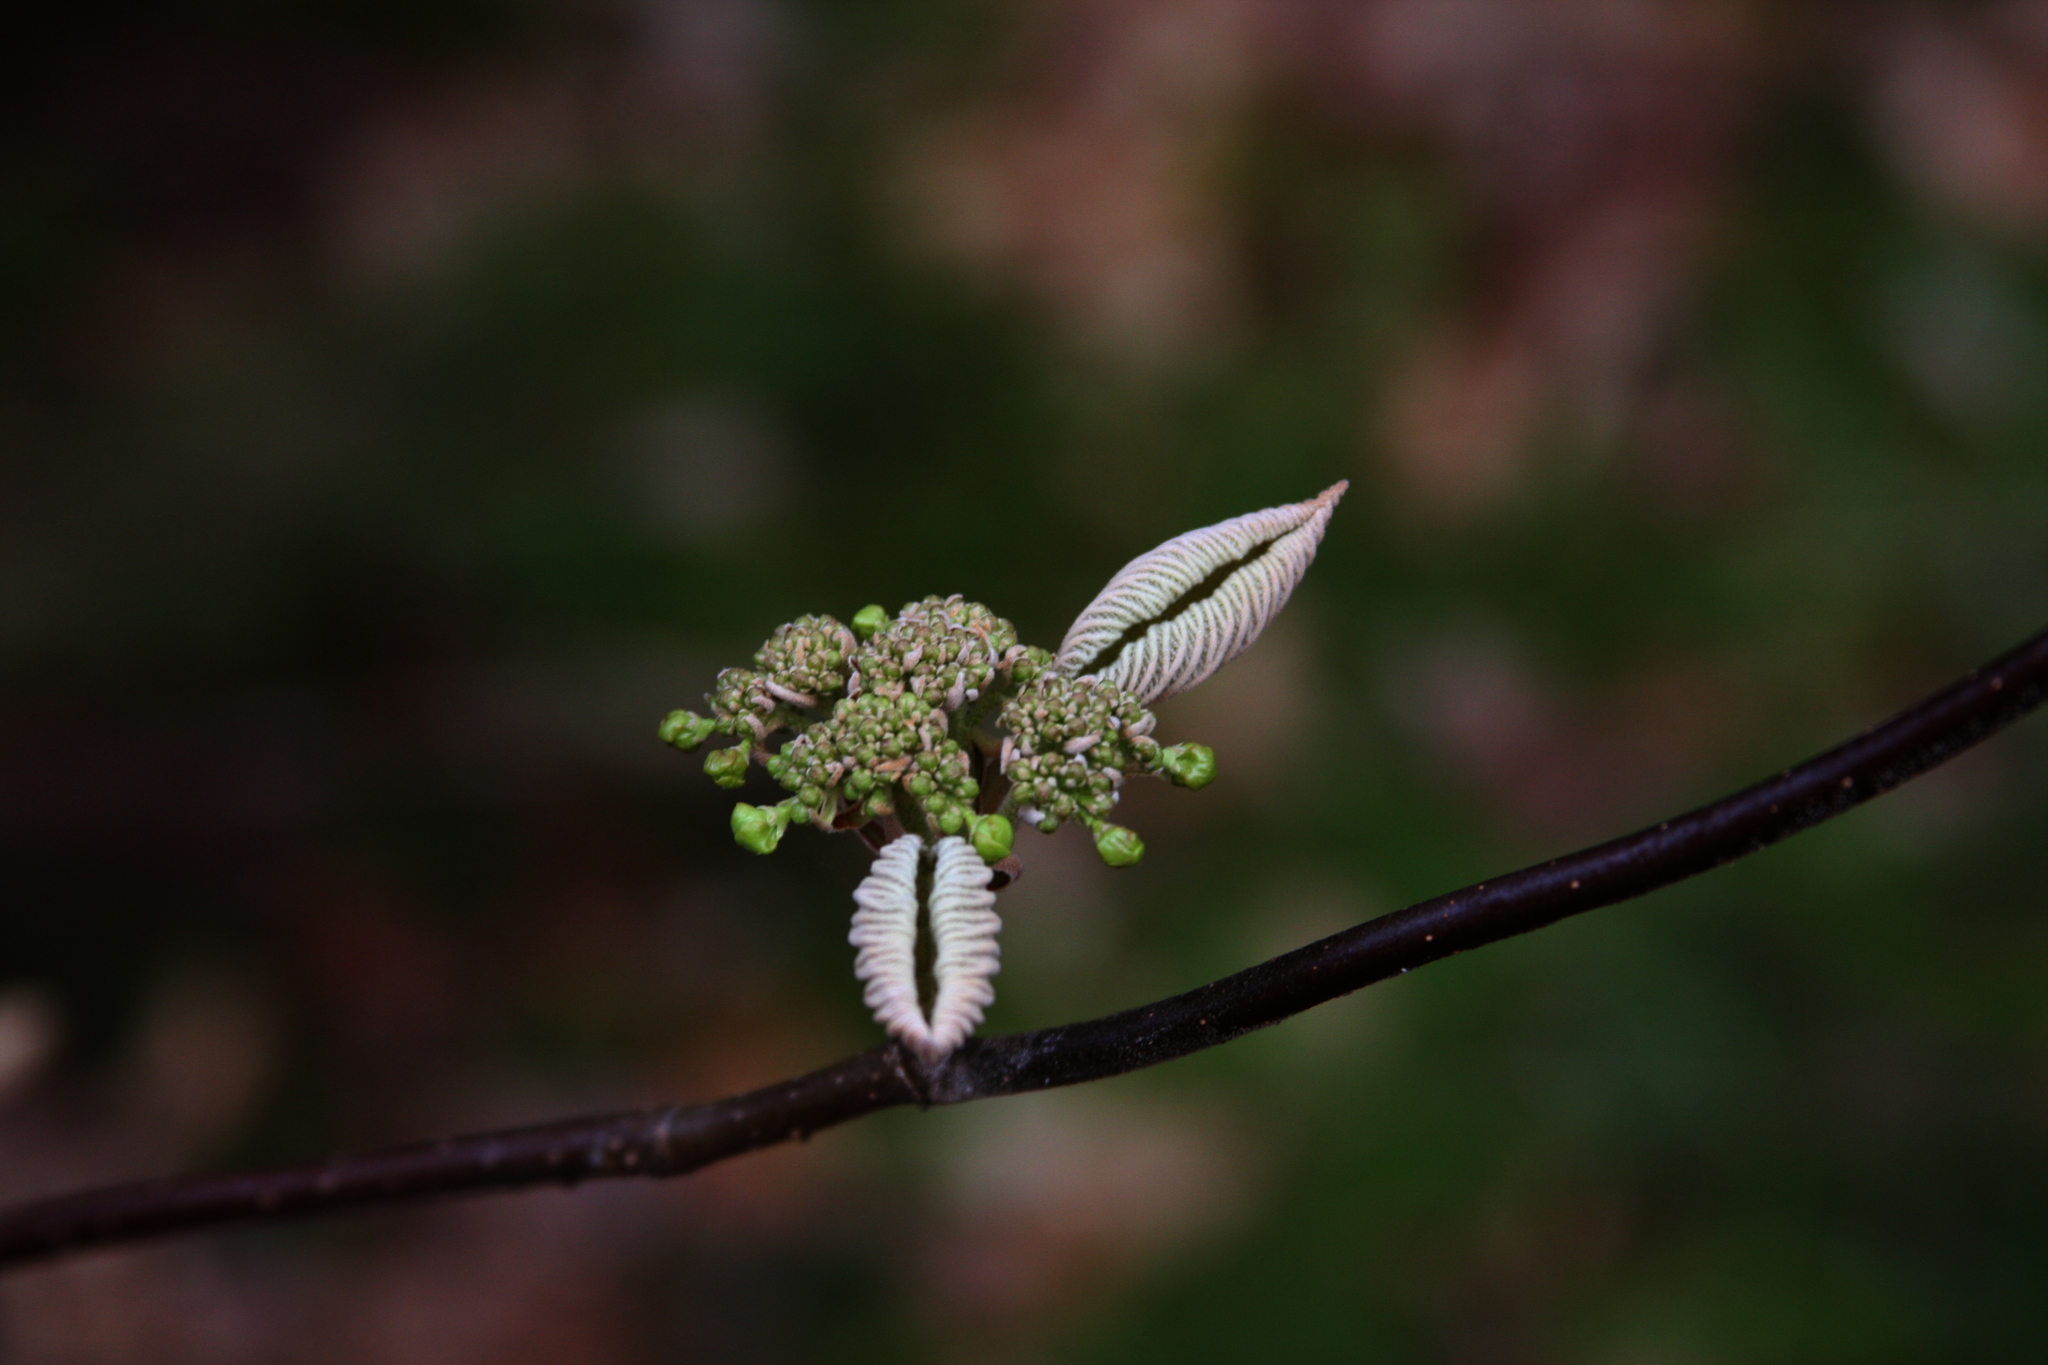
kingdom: Plantae
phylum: Tracheophyta
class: Magnoliopsida
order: Dipsacales
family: Viburnaceae
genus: Viburnum
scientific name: Viburnum lantanoides
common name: Hobblebush
